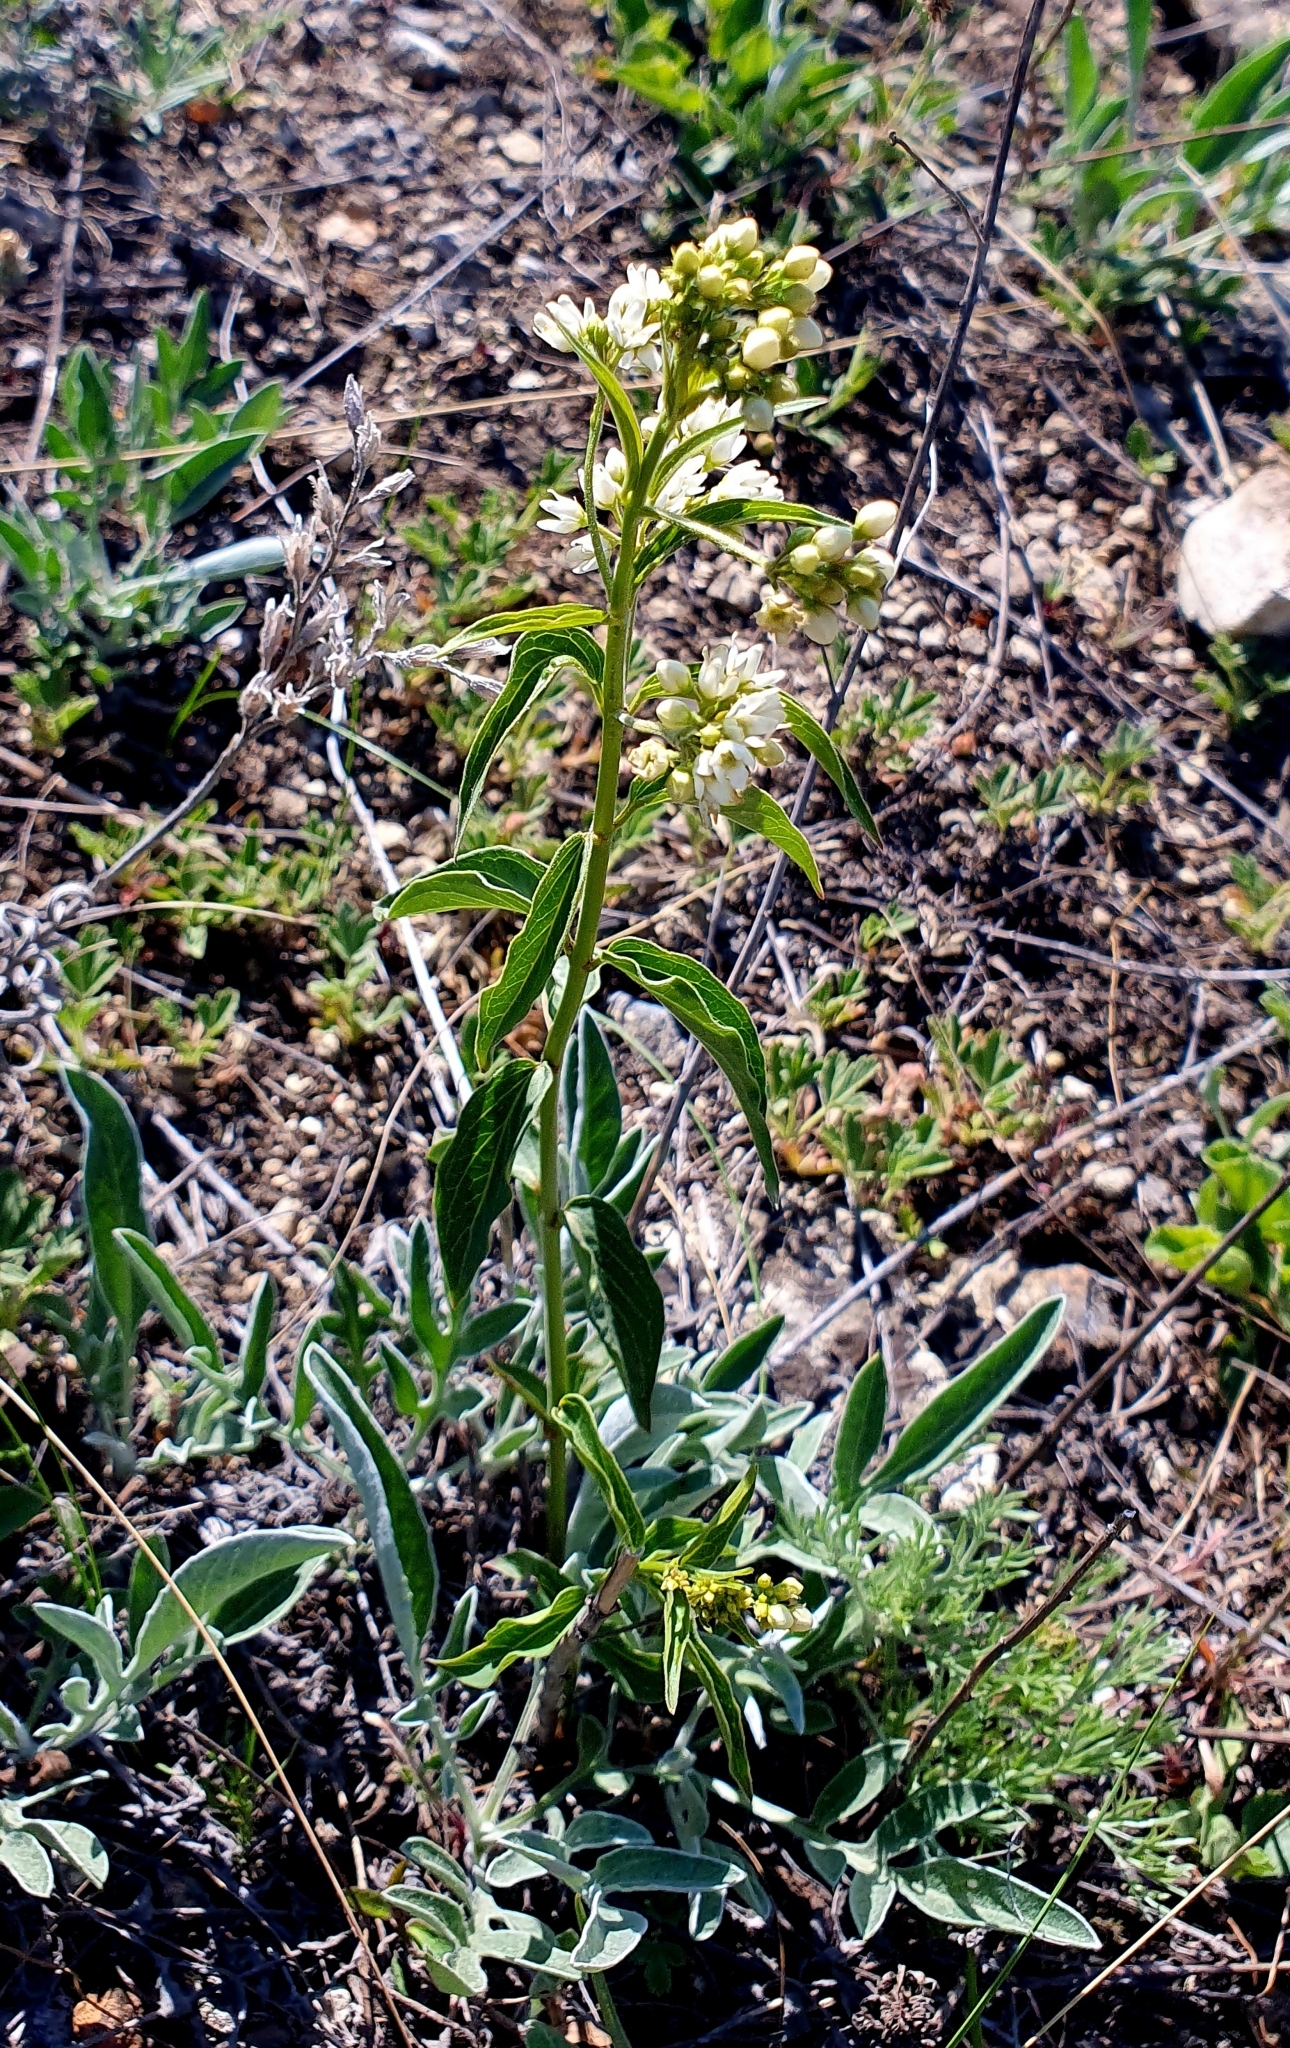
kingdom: Plantae
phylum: Tracheophyta
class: Magnoliopsida
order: Gentianales
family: Apocynaceae
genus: Vincetoxicum
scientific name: Vincetoxicum hirundinaria
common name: White swallowwort
